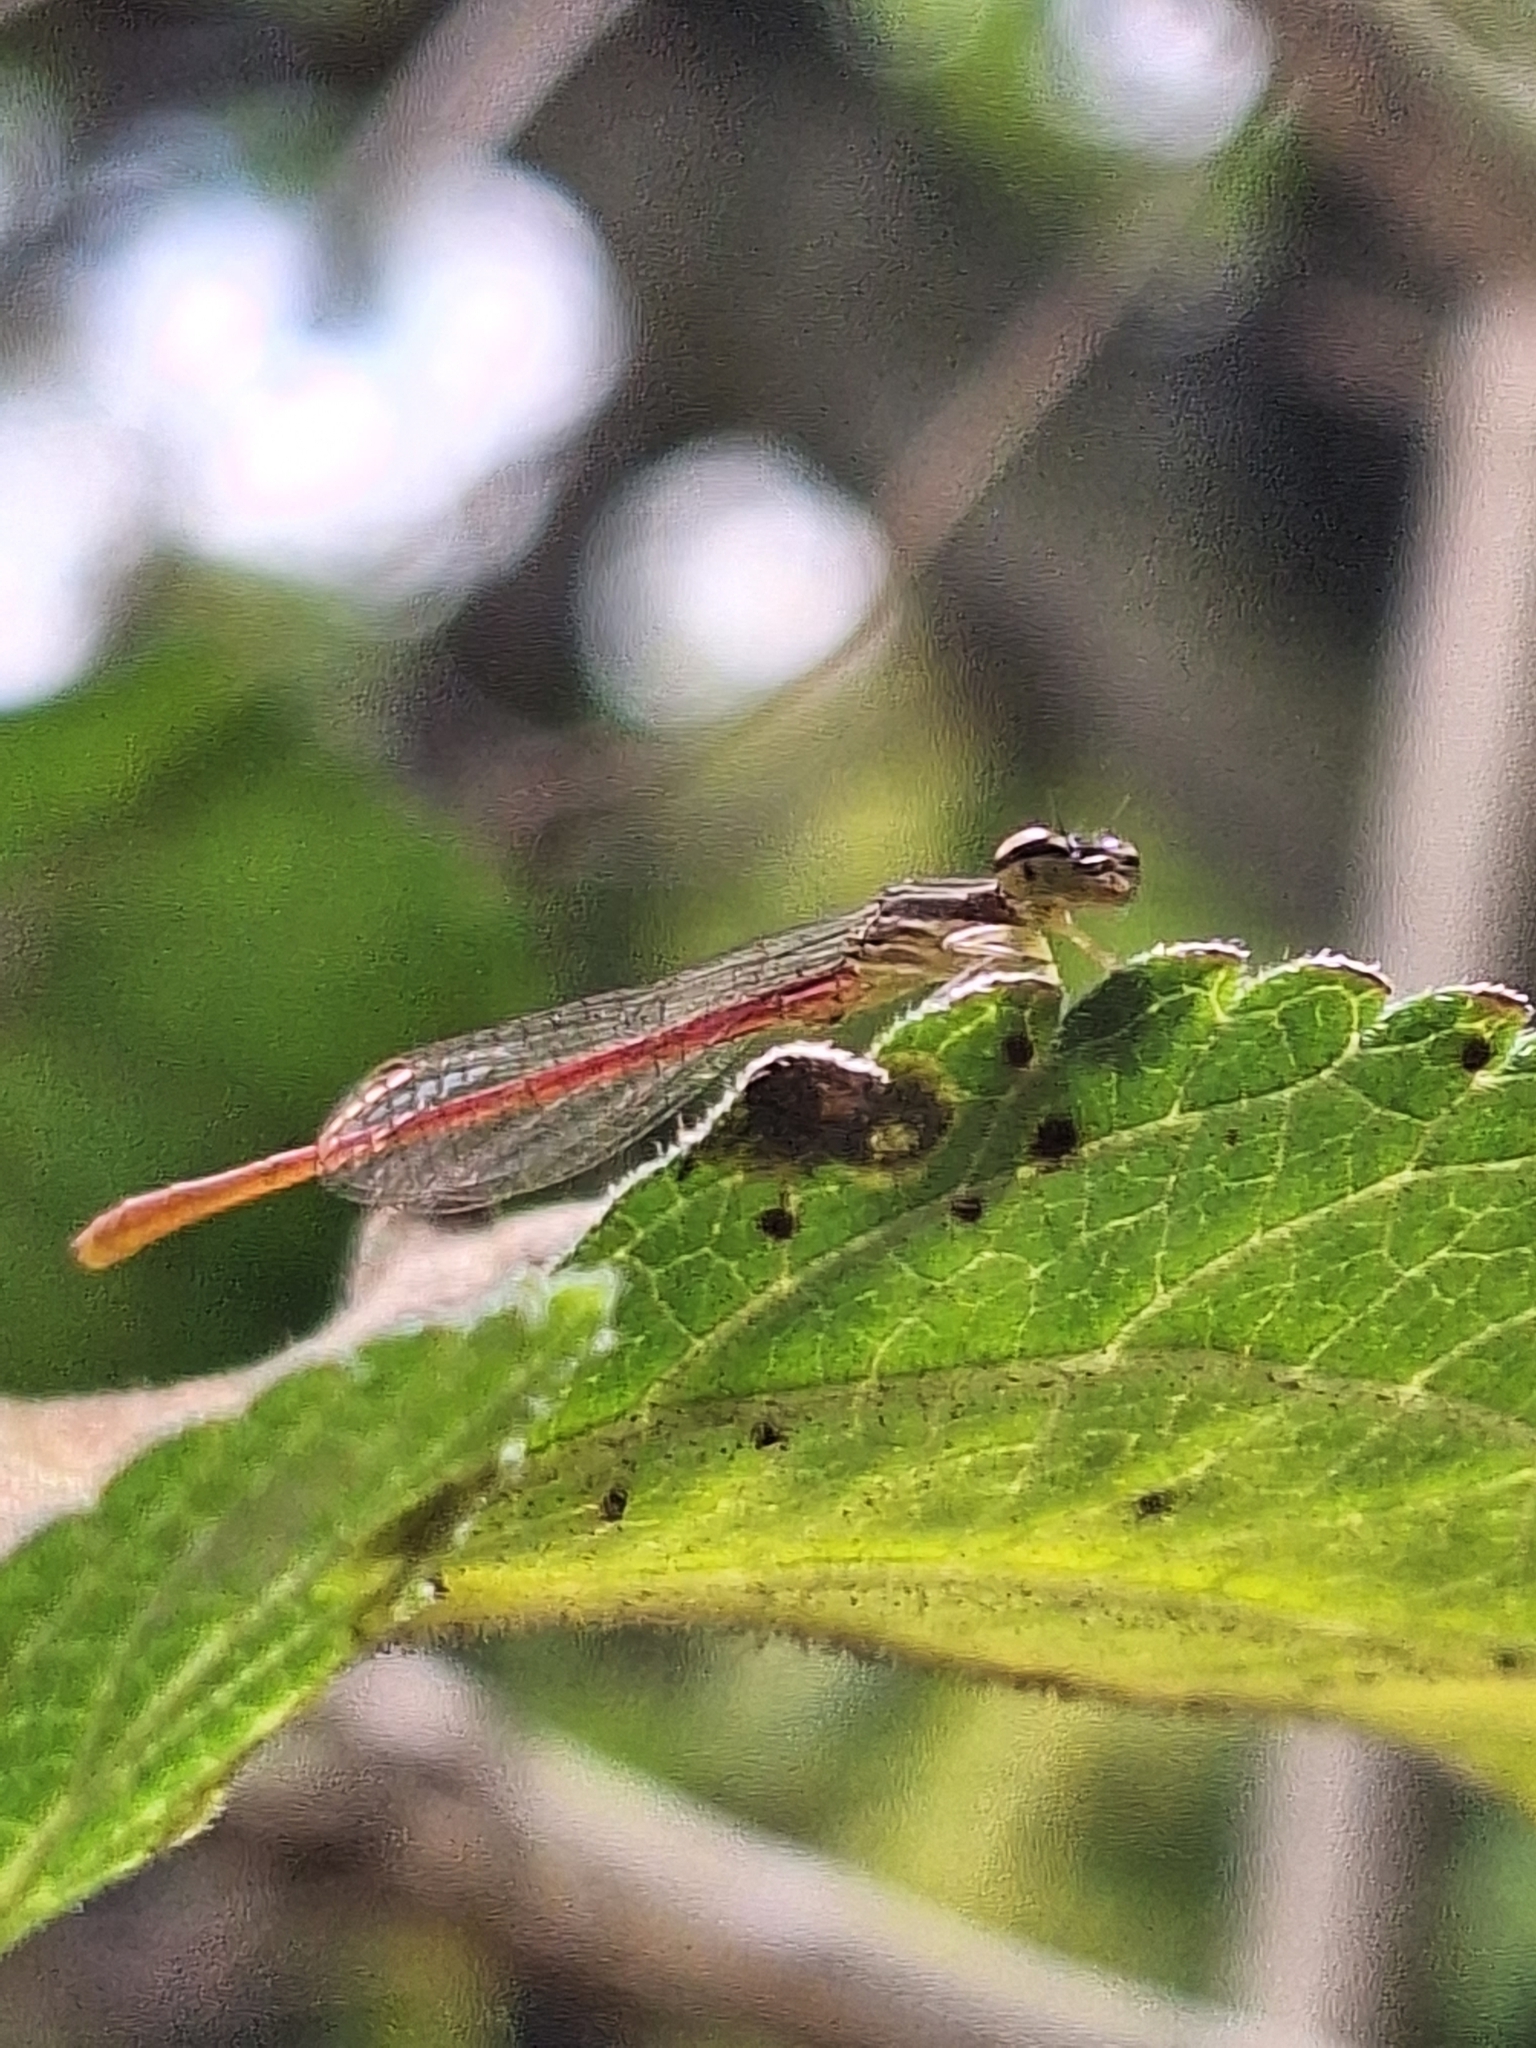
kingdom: Animalia
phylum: Arthropoda
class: Insecta
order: Odonata
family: Coenagrionidae
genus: Telebasis
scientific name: Telebasis willinki
